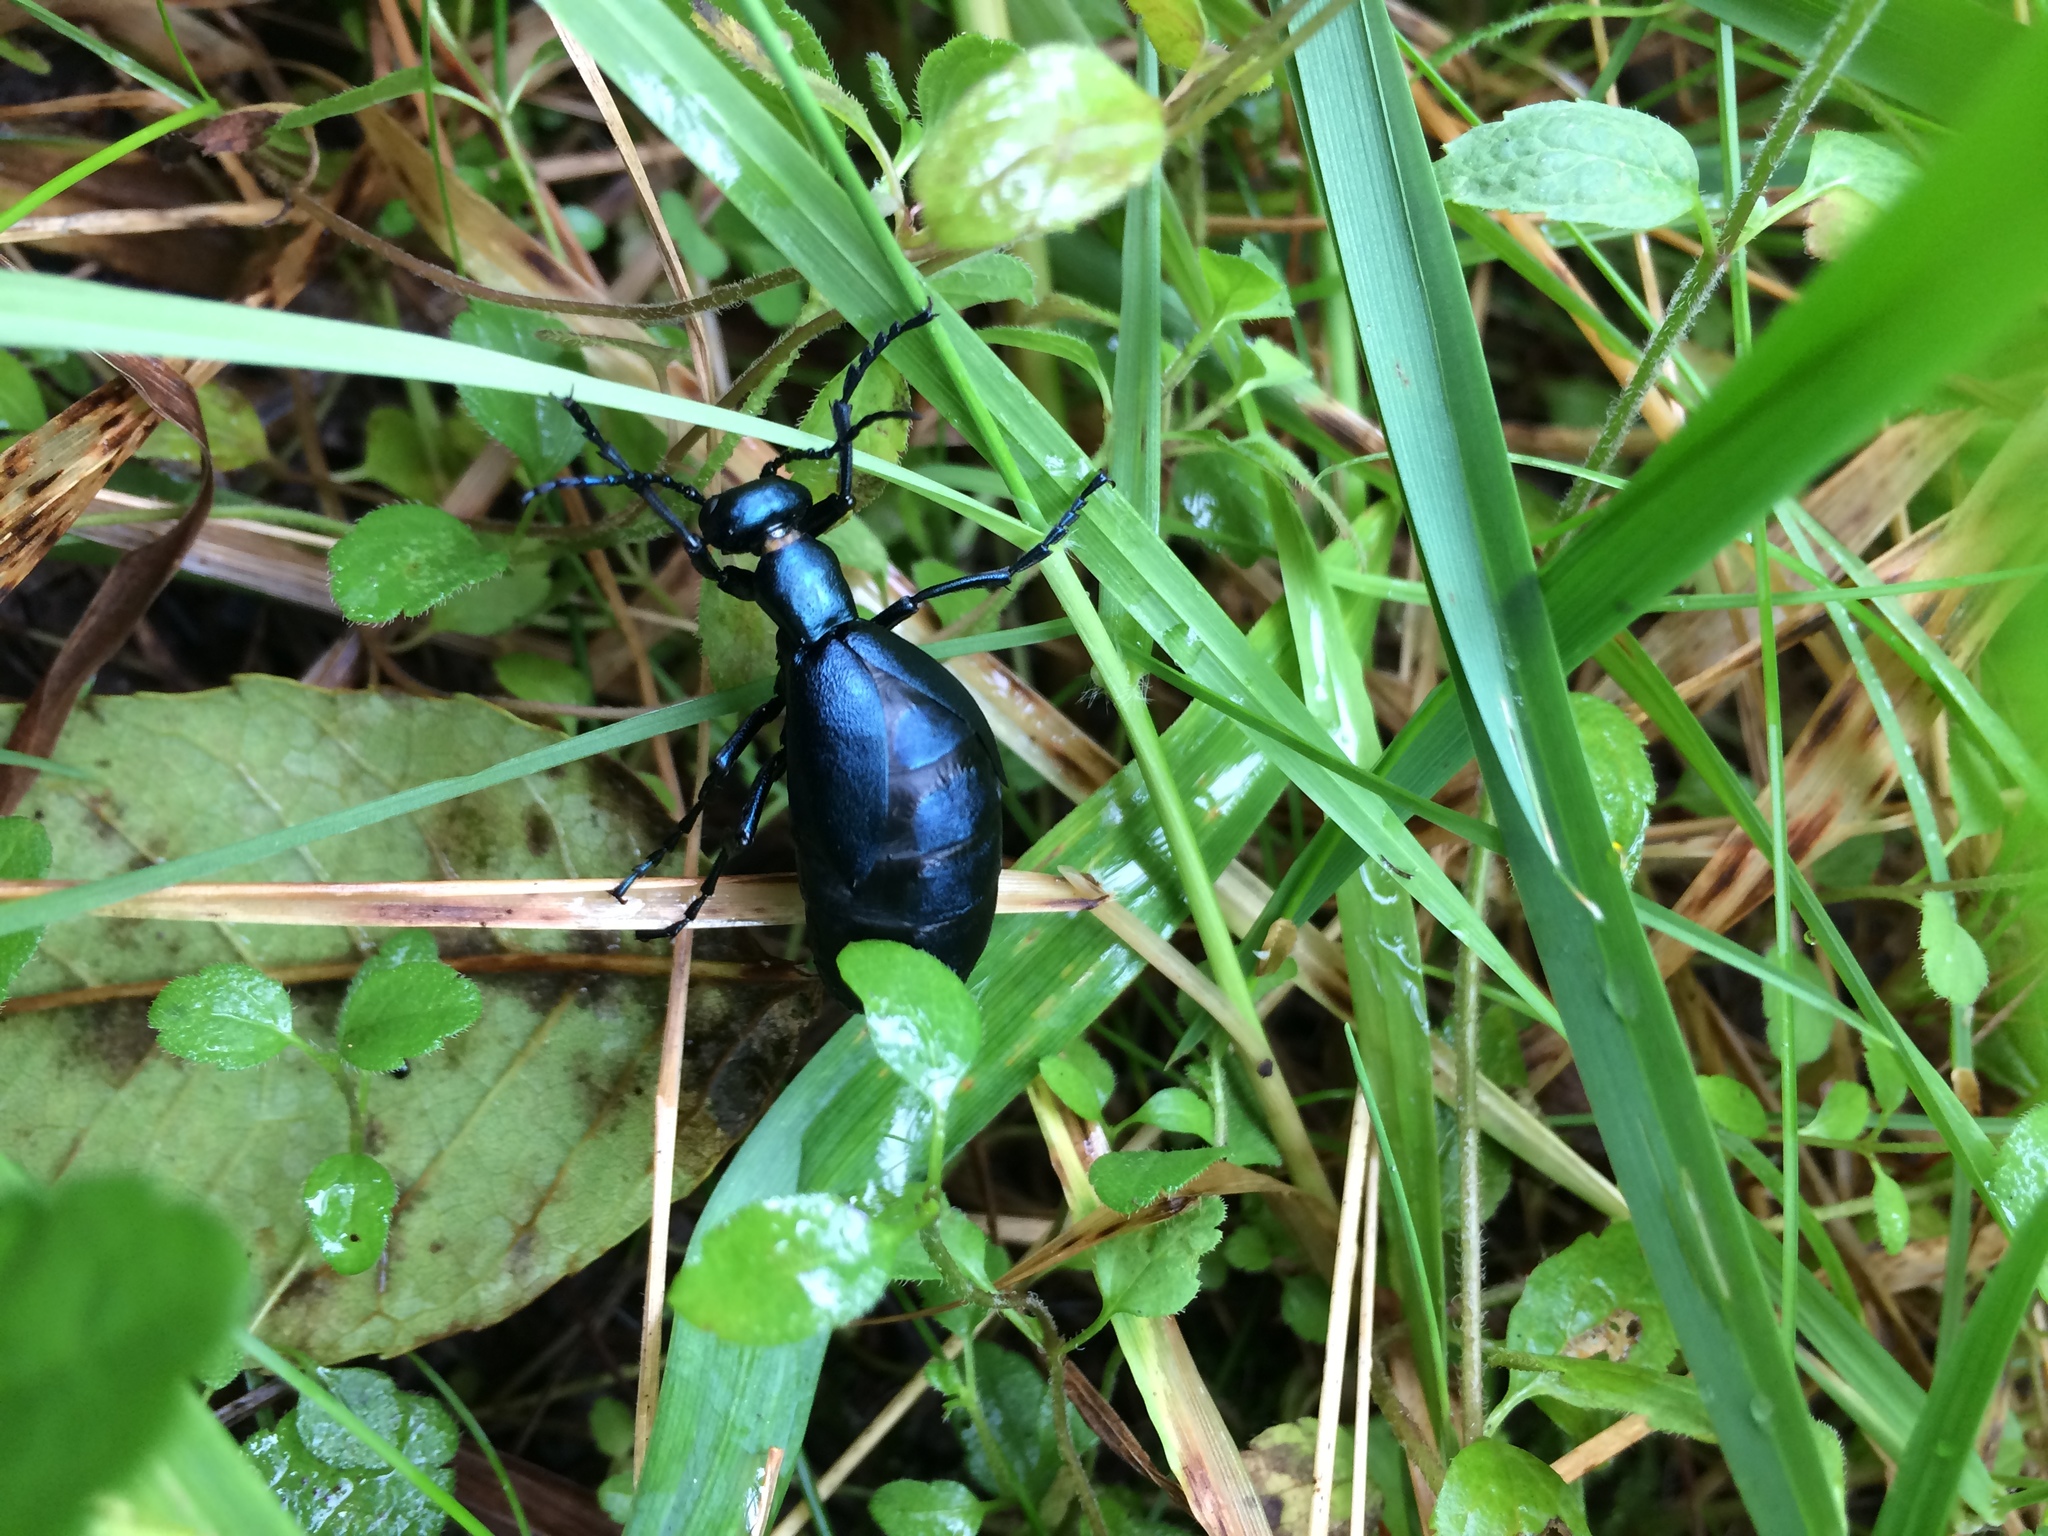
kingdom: Animalia
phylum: Arthropoda
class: Insecta
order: Coleoptera
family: Meloidae
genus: Meloe
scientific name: Meloe impressus
